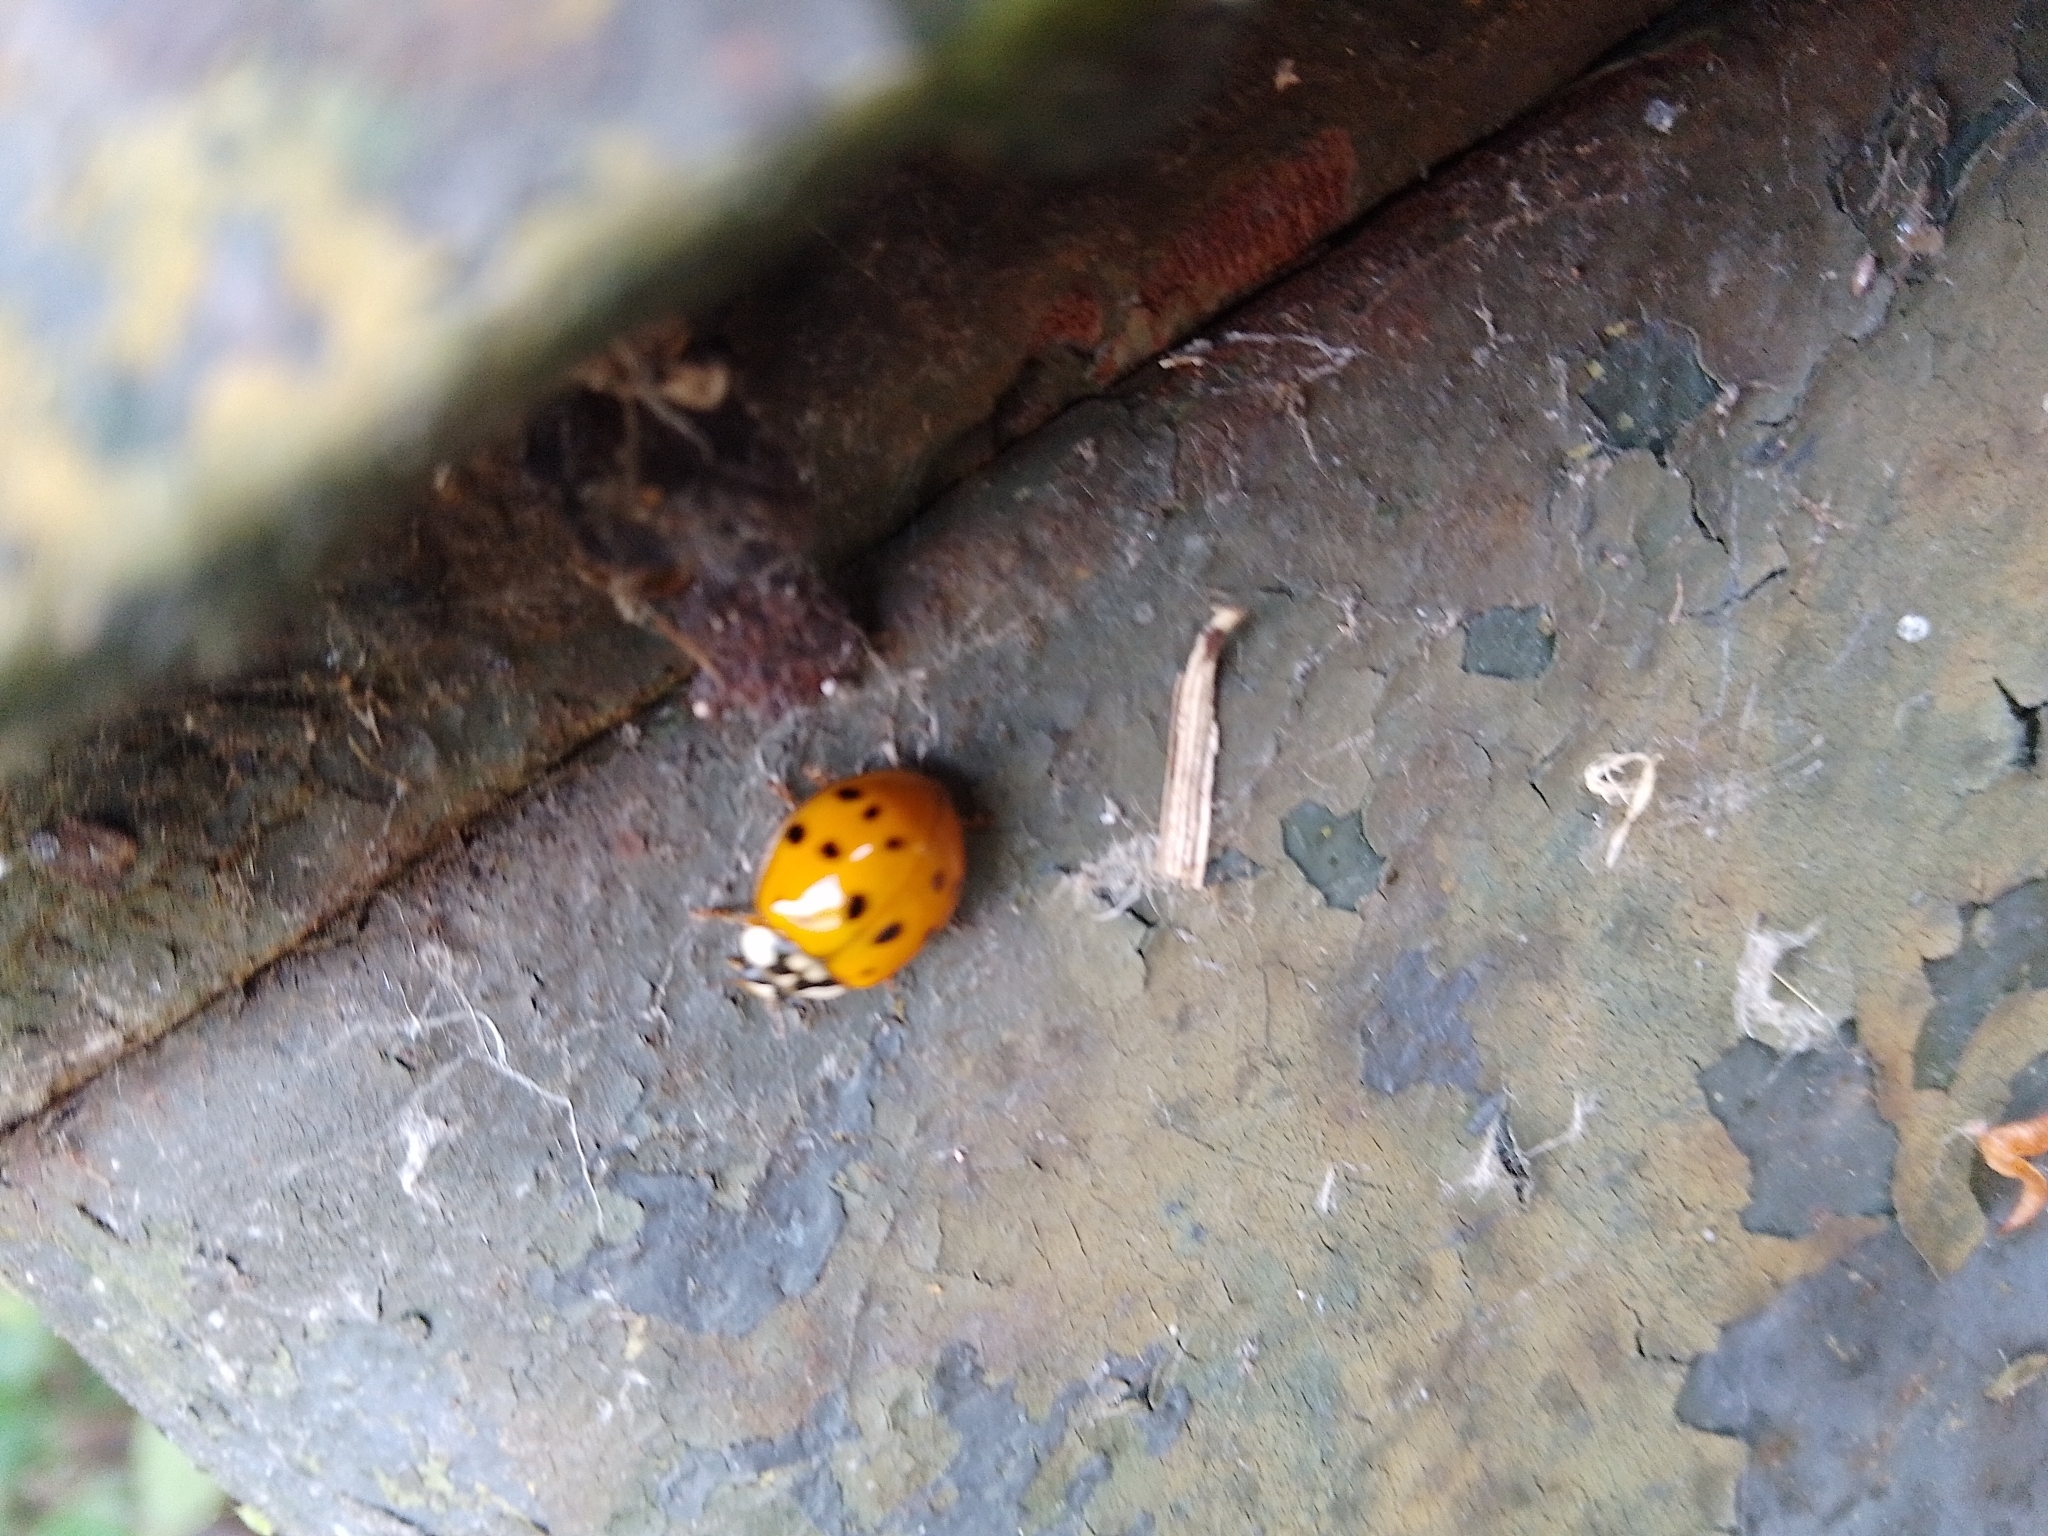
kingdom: Animalia
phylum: Arthropoda
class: Insecta
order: Coleoptera
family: Coccinellidae
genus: Harmonia
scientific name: Harmonia axyridis
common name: Harlequin ladybird
